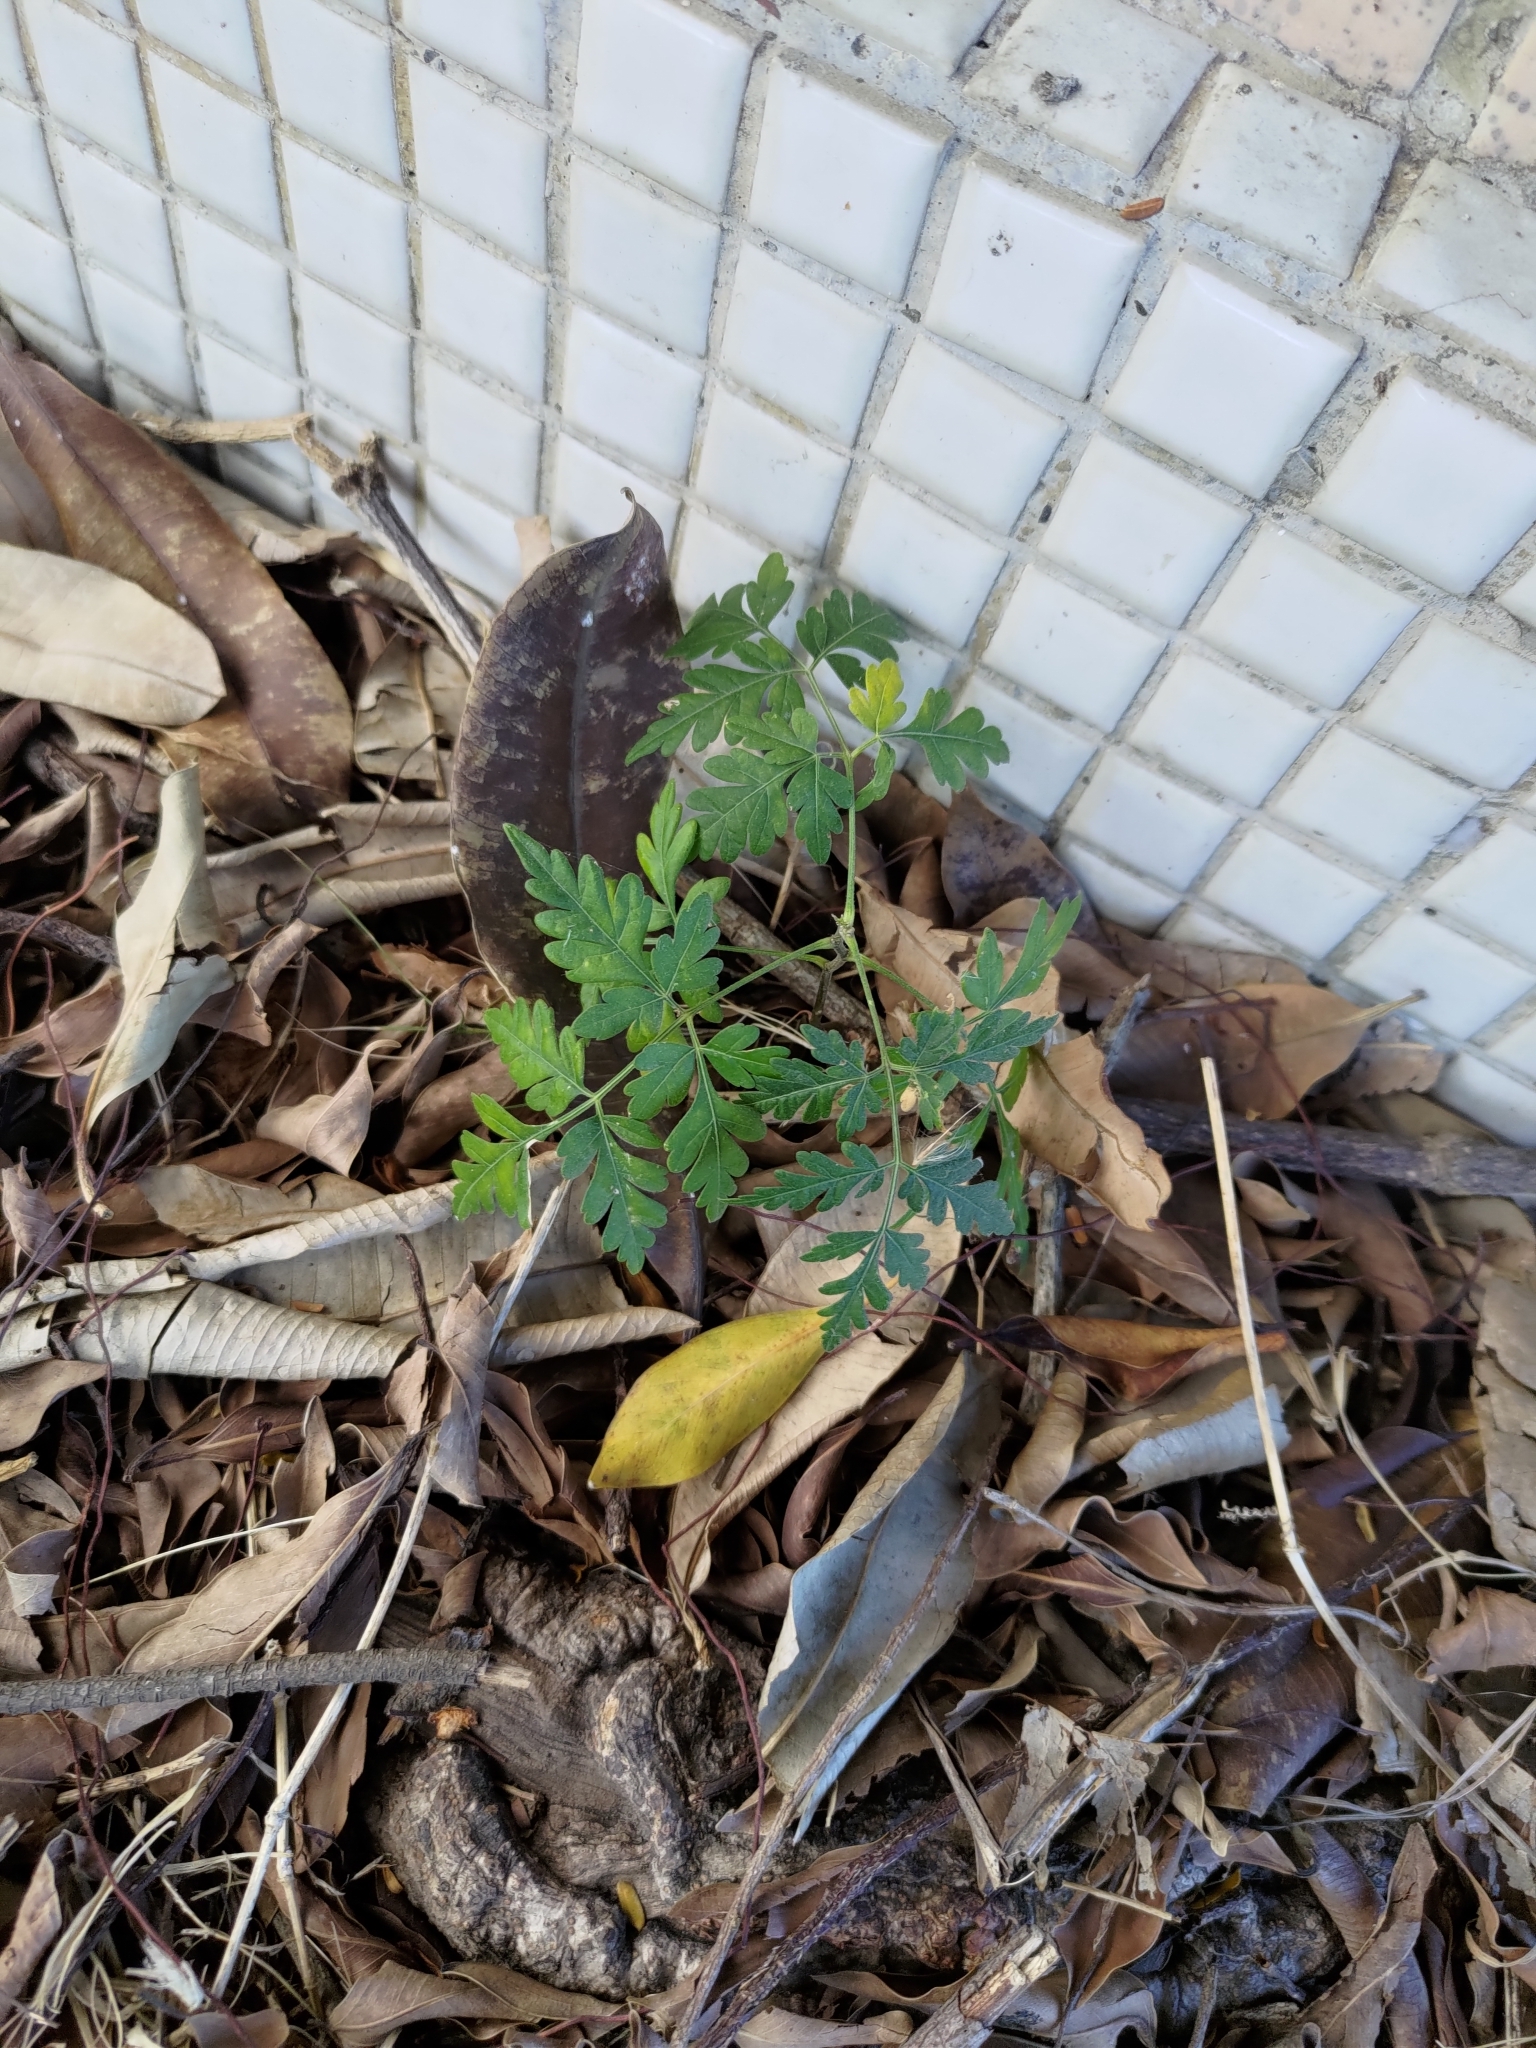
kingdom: Plantae
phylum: Tracheophyta
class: Magnoliopsida
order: Sapindales
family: Meliaceae
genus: Melia
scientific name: Melia azedarach
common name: Chinaberrytree
